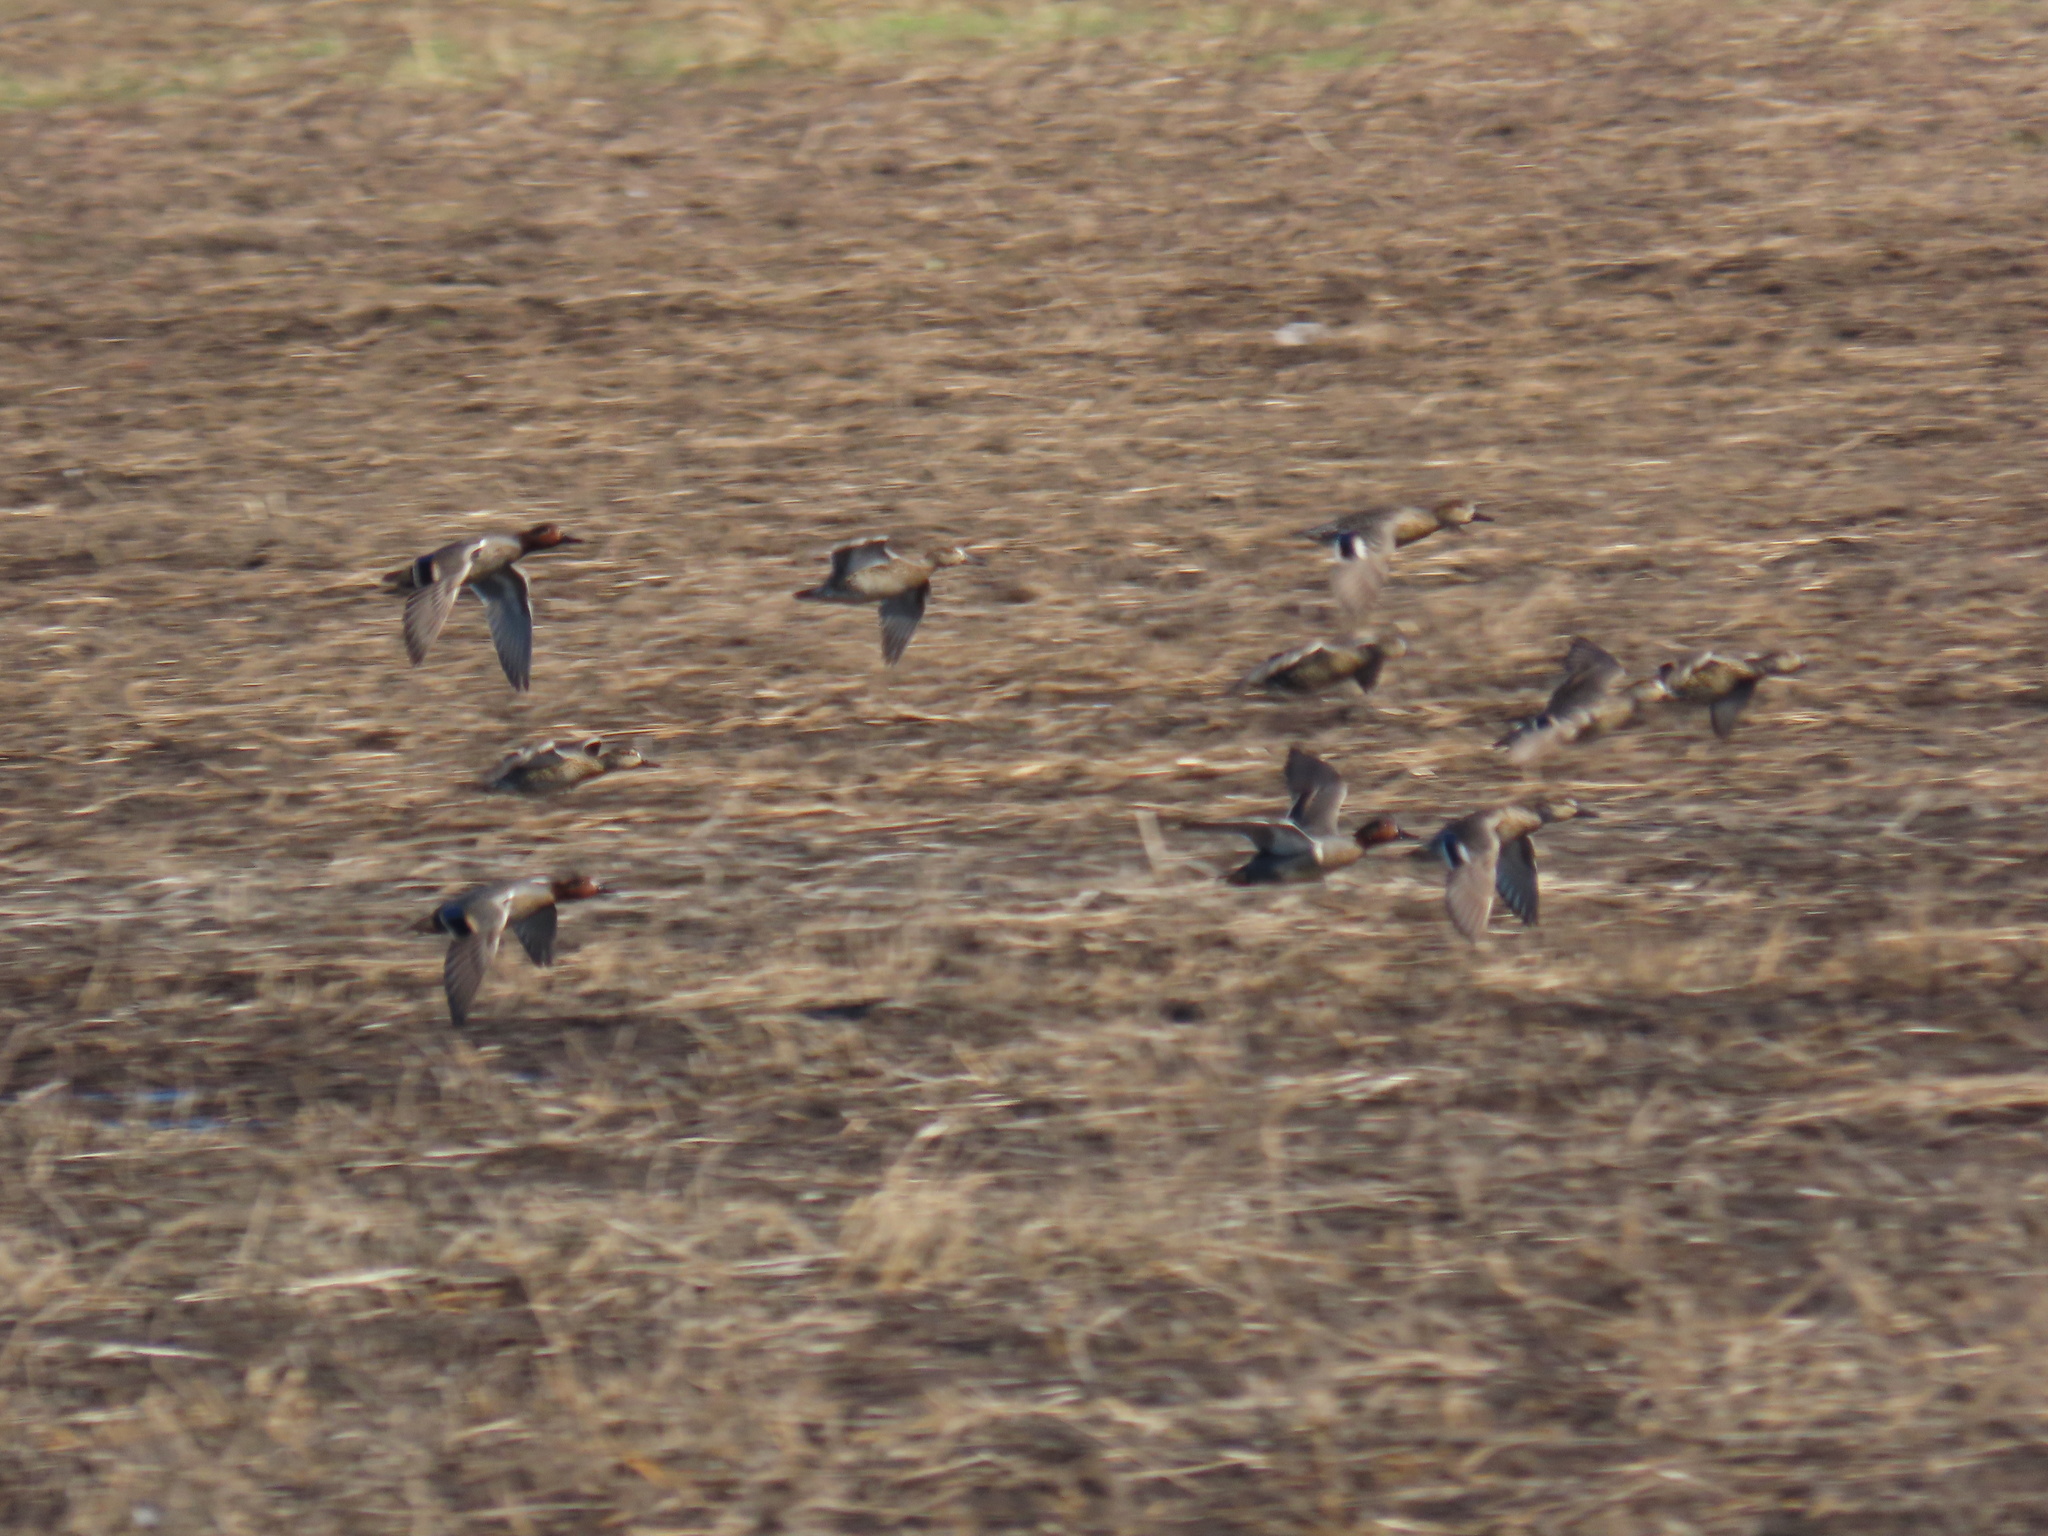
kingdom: Animalia
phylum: Chordata
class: Aves
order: Anseriformes
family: Anatidae
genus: Anas
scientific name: Anas crecca
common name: Eurasian teal
